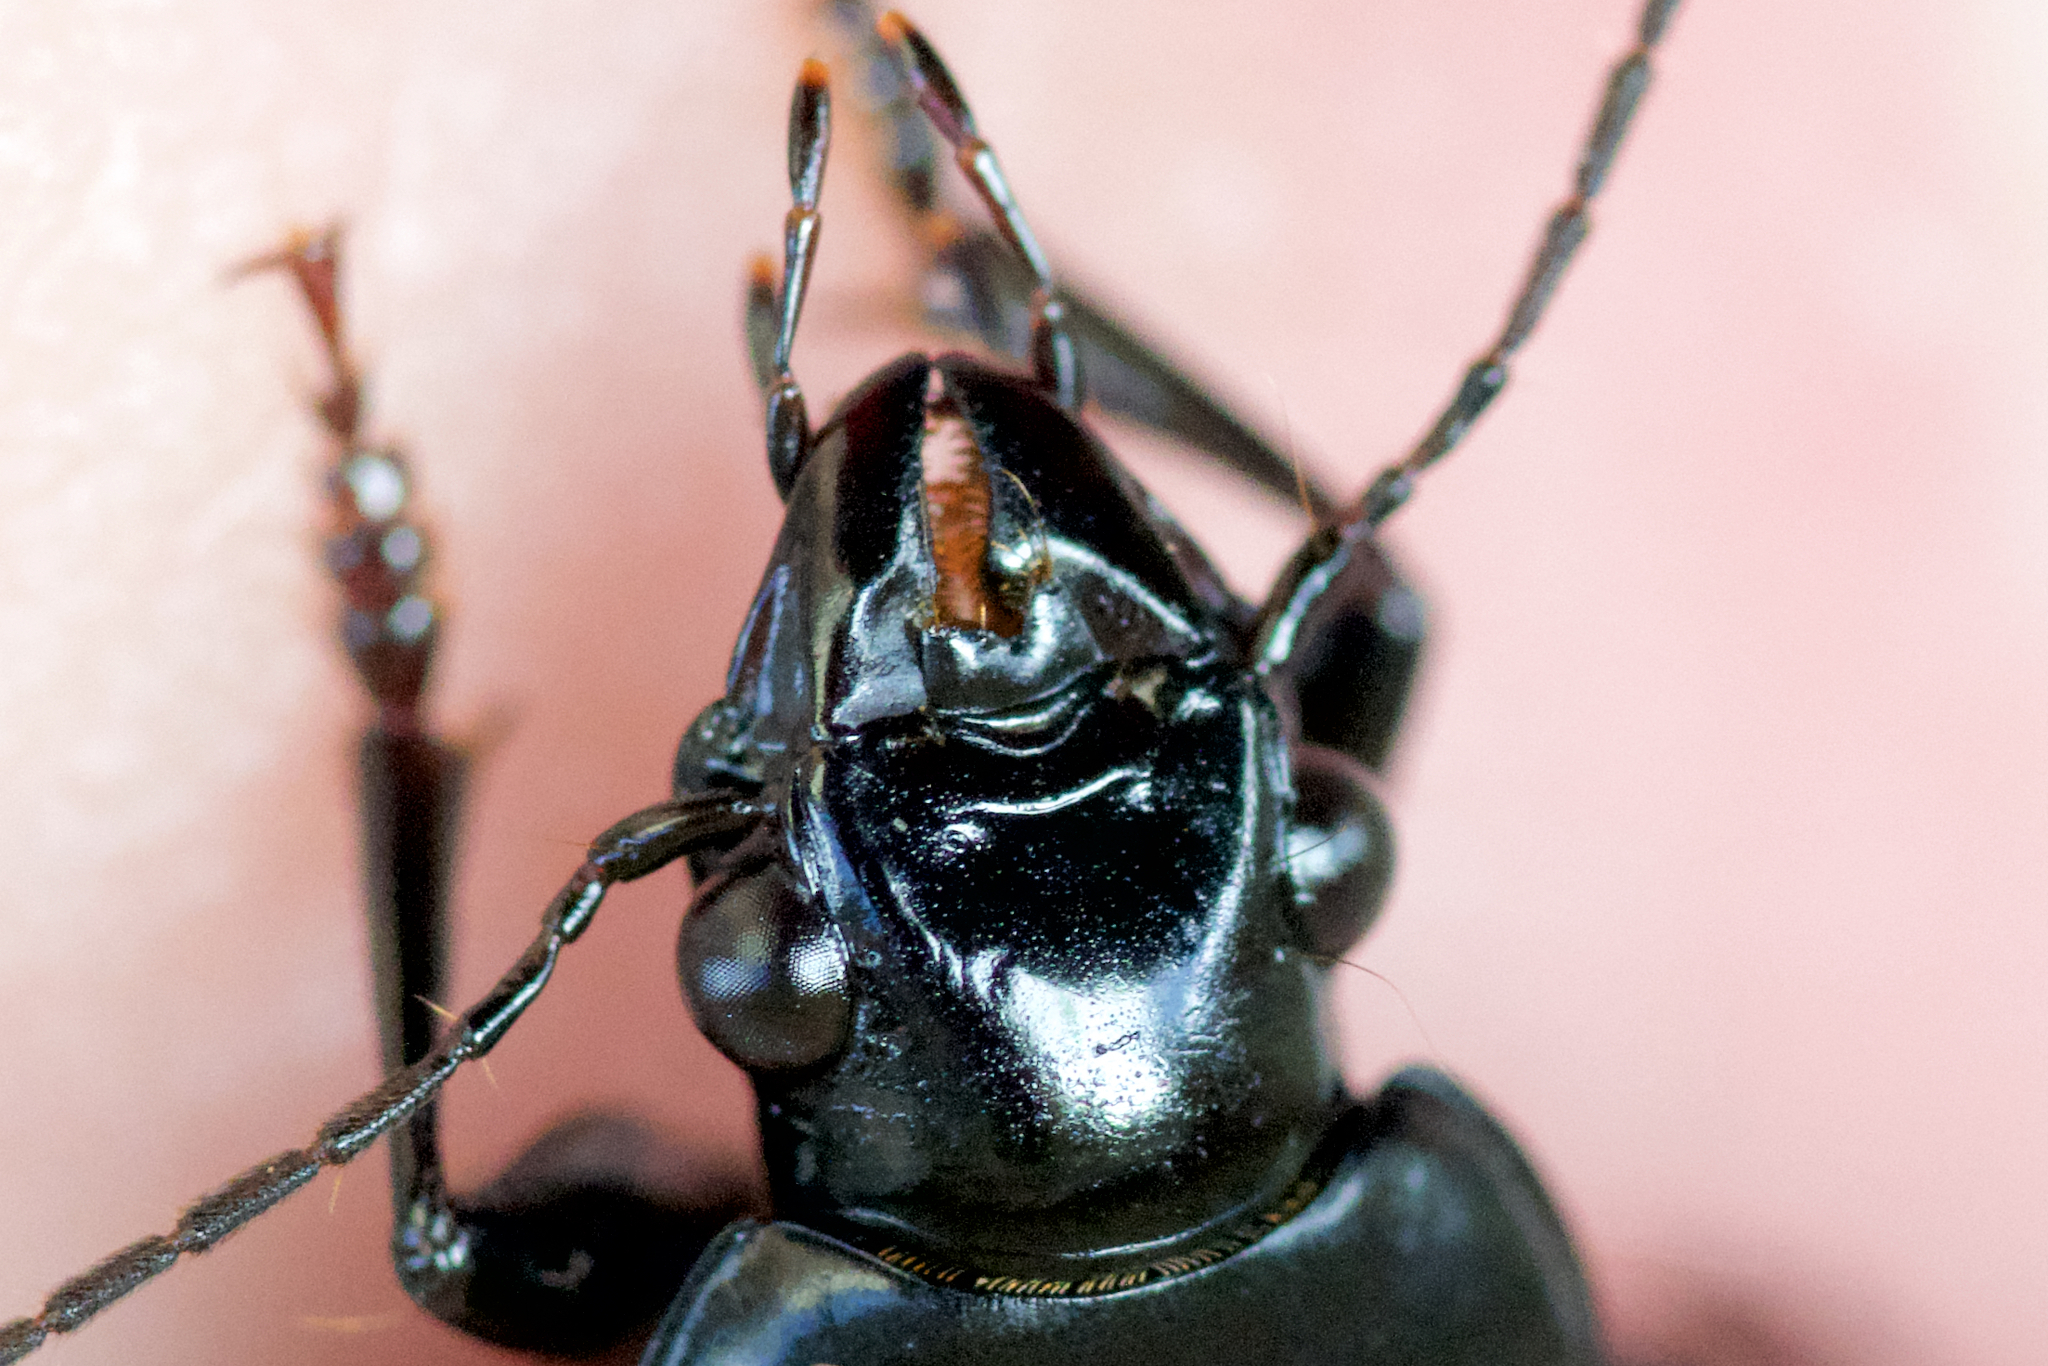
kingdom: Animalia
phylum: Arthropoda
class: Insecta
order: Coleoptera
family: Carabidae
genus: Diplocheila
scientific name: Diplocheila striatopunctata
